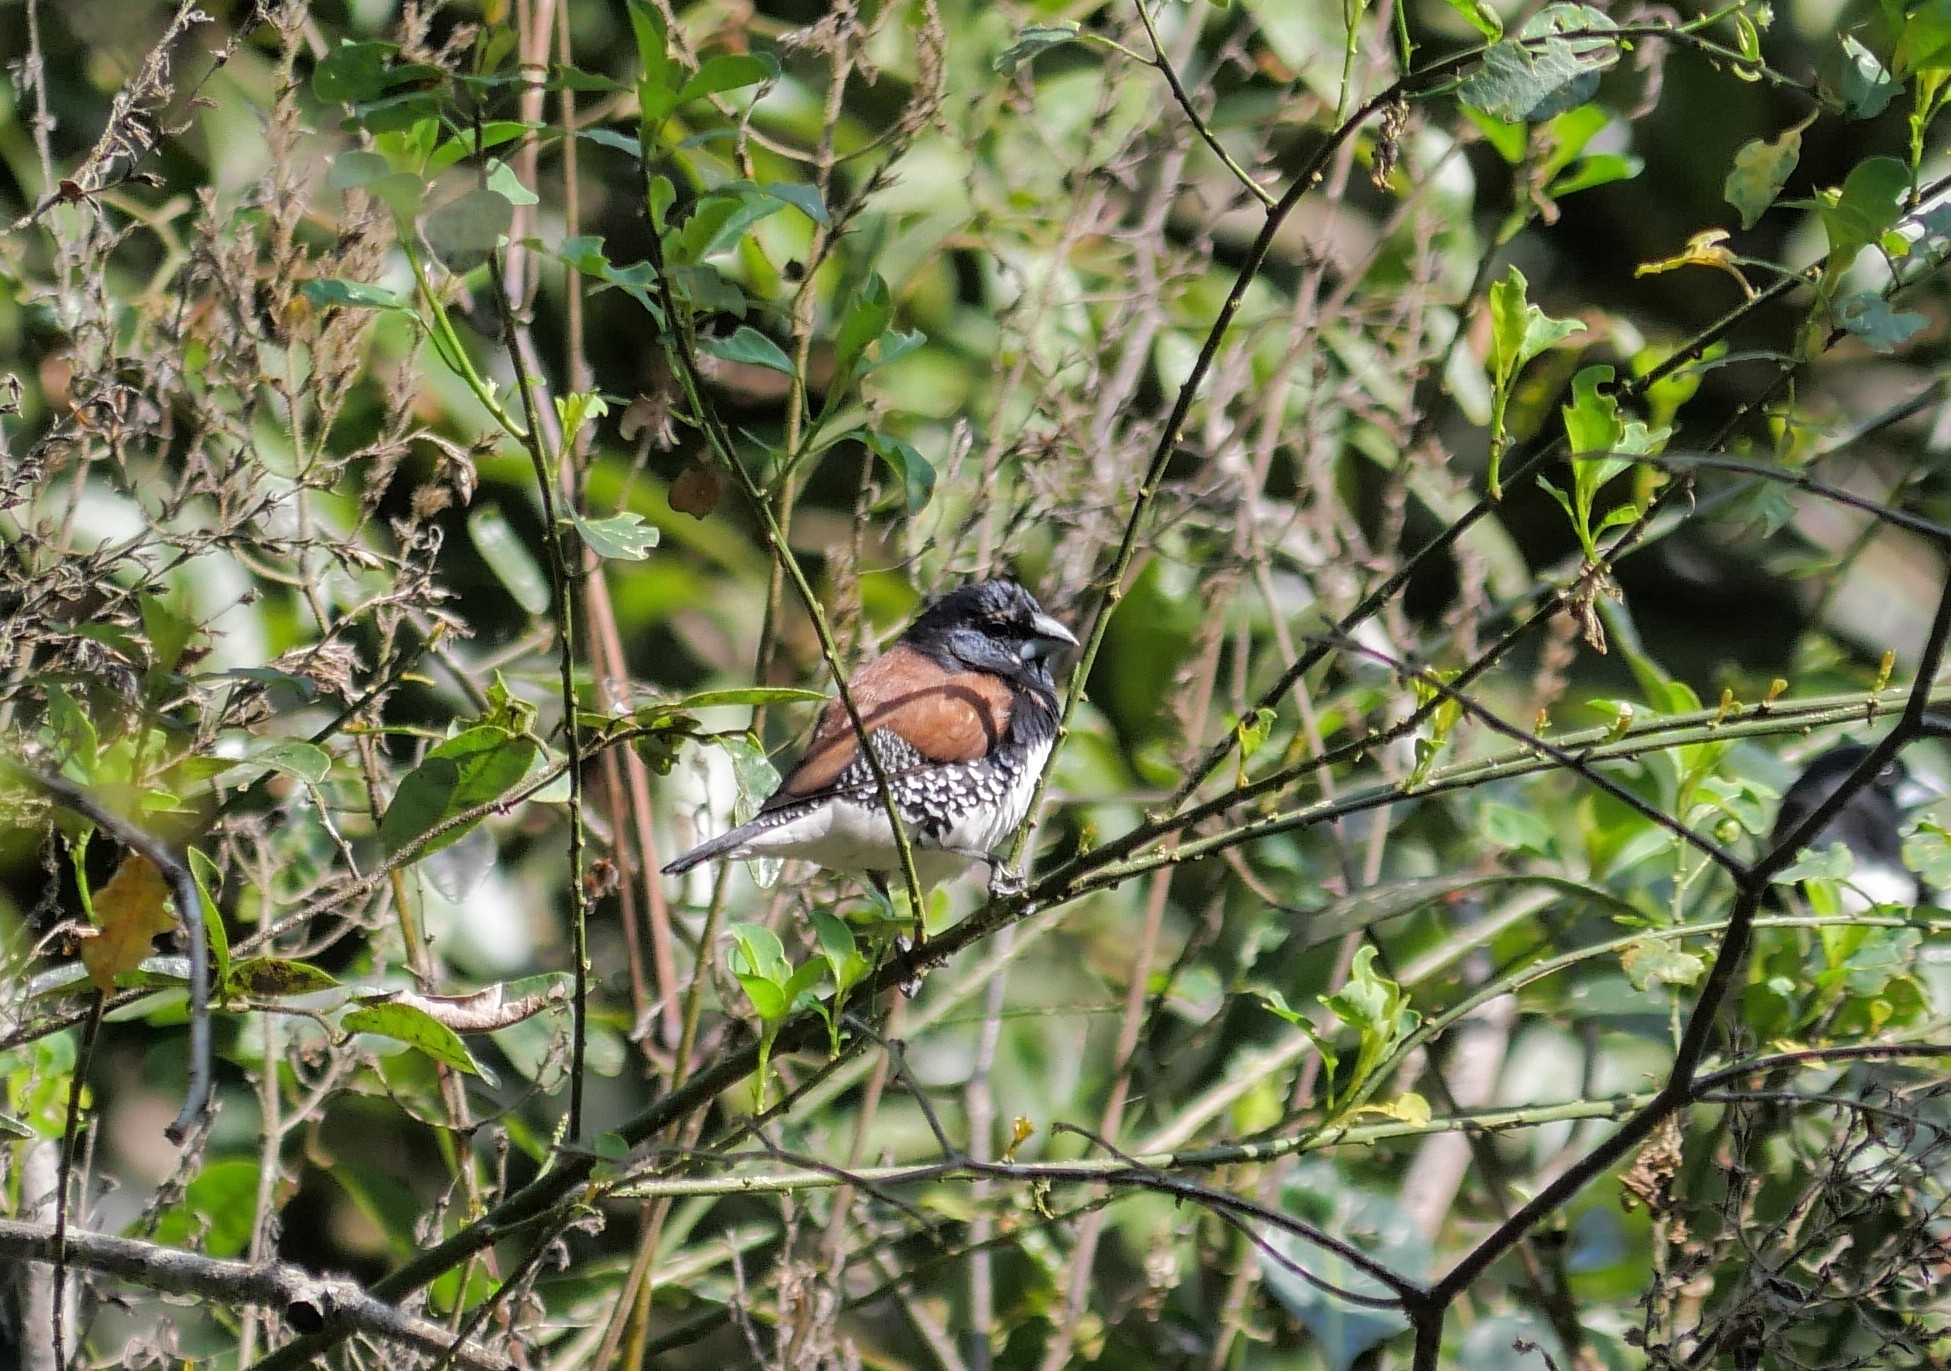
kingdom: Animalia
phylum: Chordata
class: Aves
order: Passeriformes
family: Estrildidae
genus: Lonchura
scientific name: Lonchura nigriceps
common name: Red-backed mannikin
